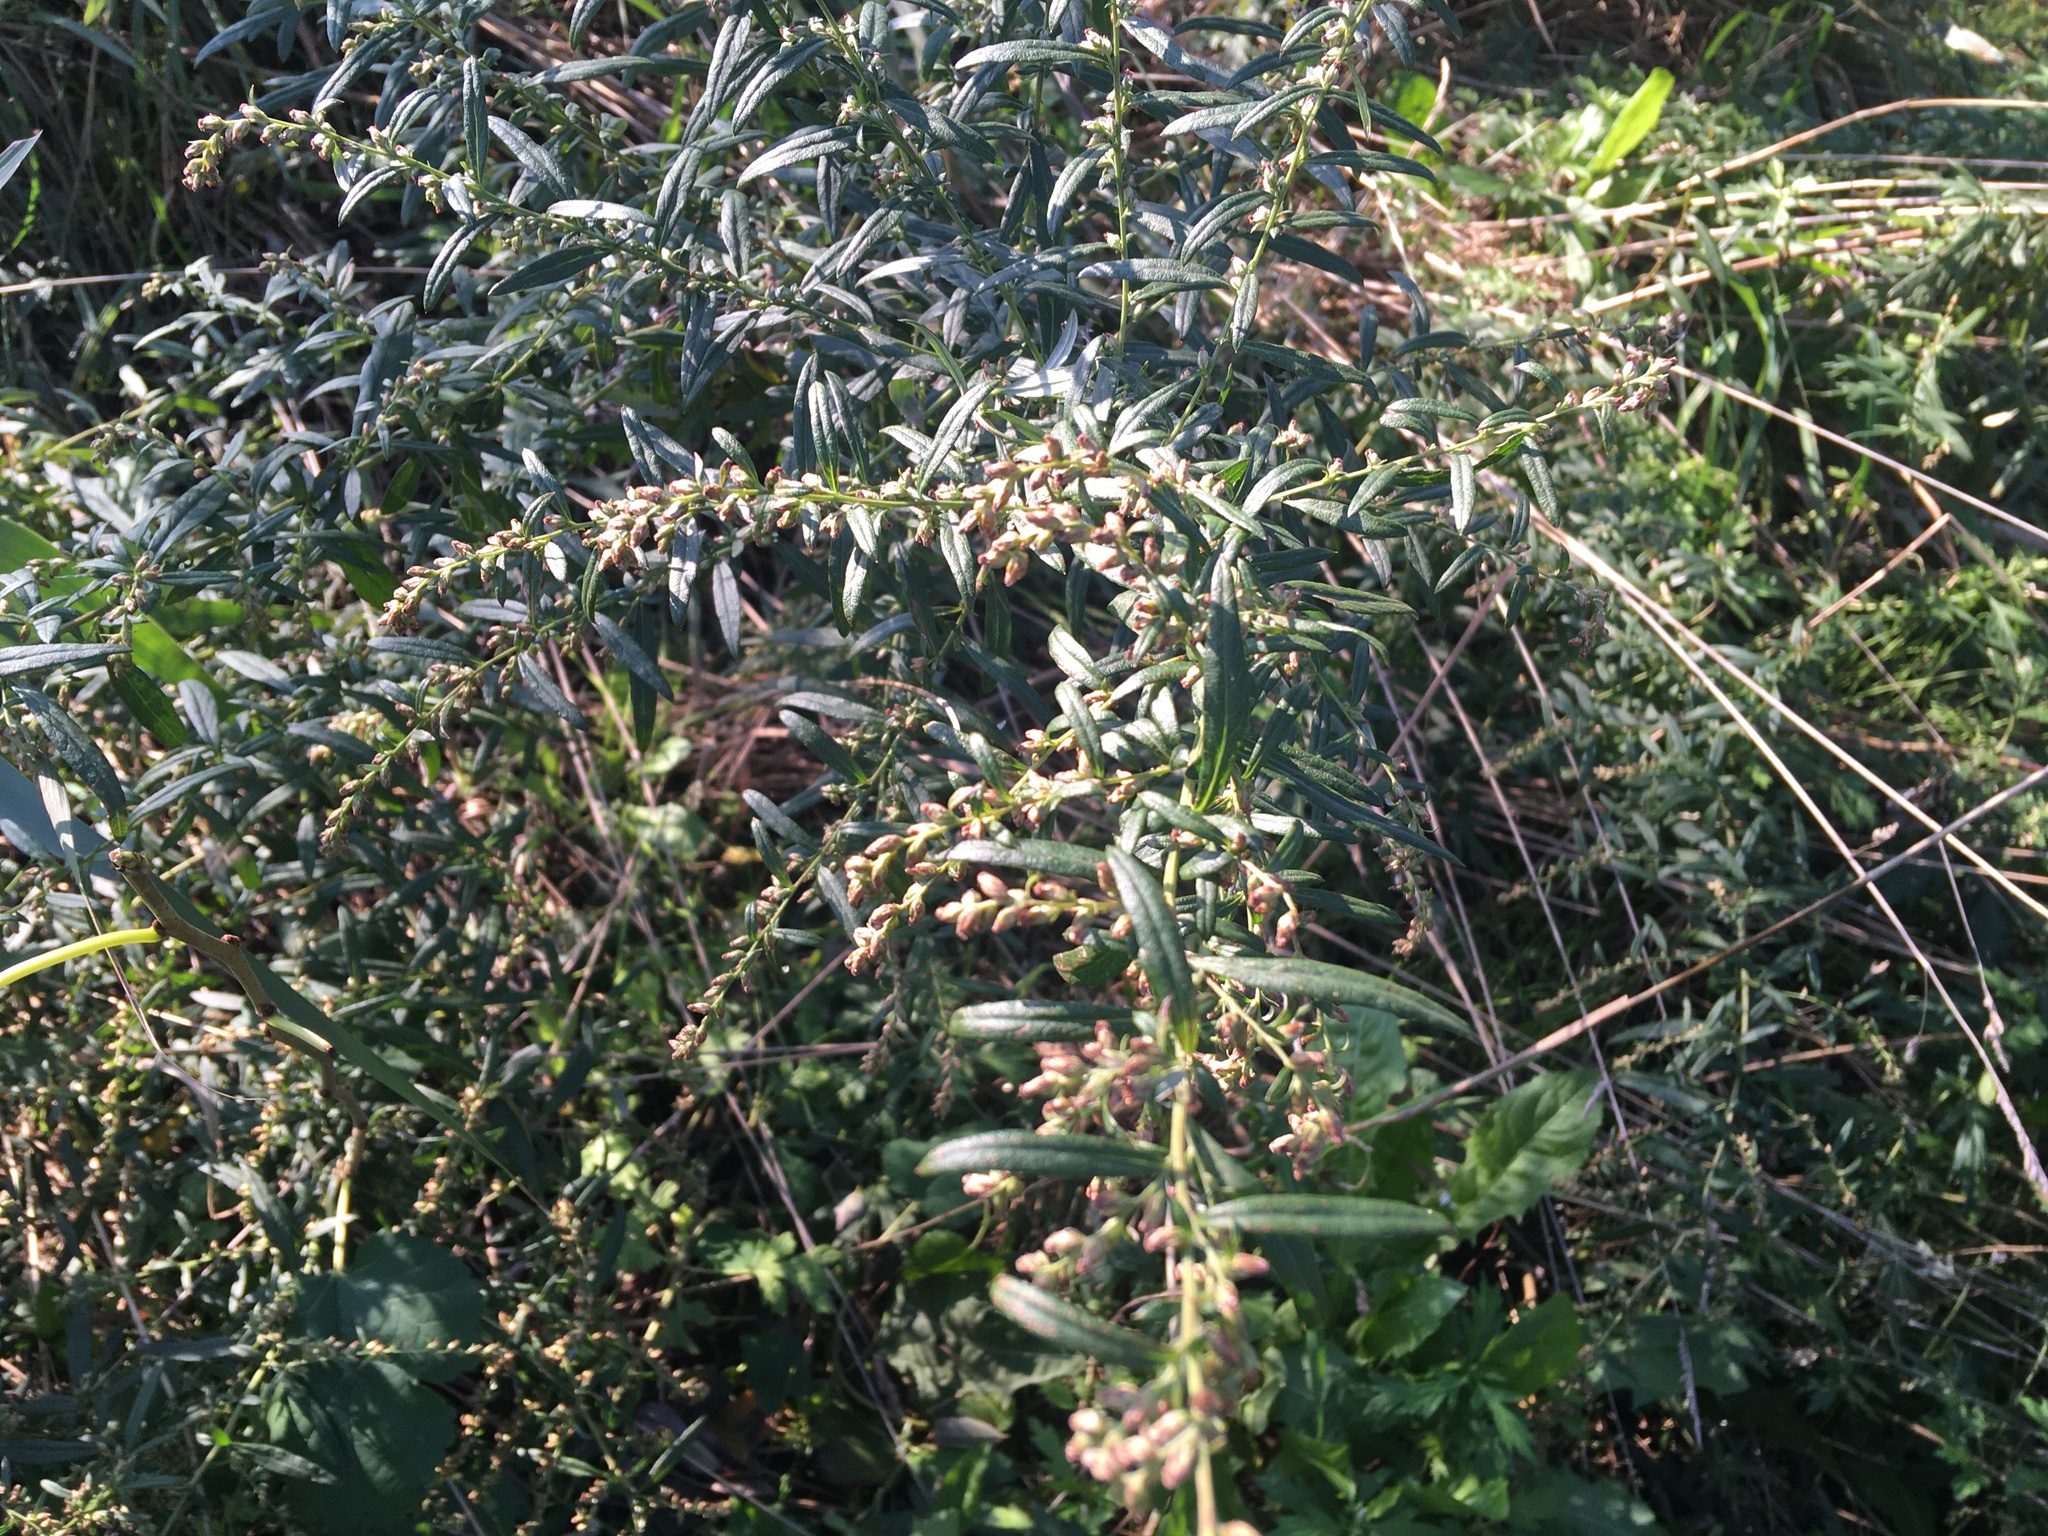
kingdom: Plantae
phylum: Tracheophyta
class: Magnoliopsida
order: Asterales
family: Asteraceae
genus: Artemisia
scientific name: Artemisia vulgaris
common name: Mugwort
